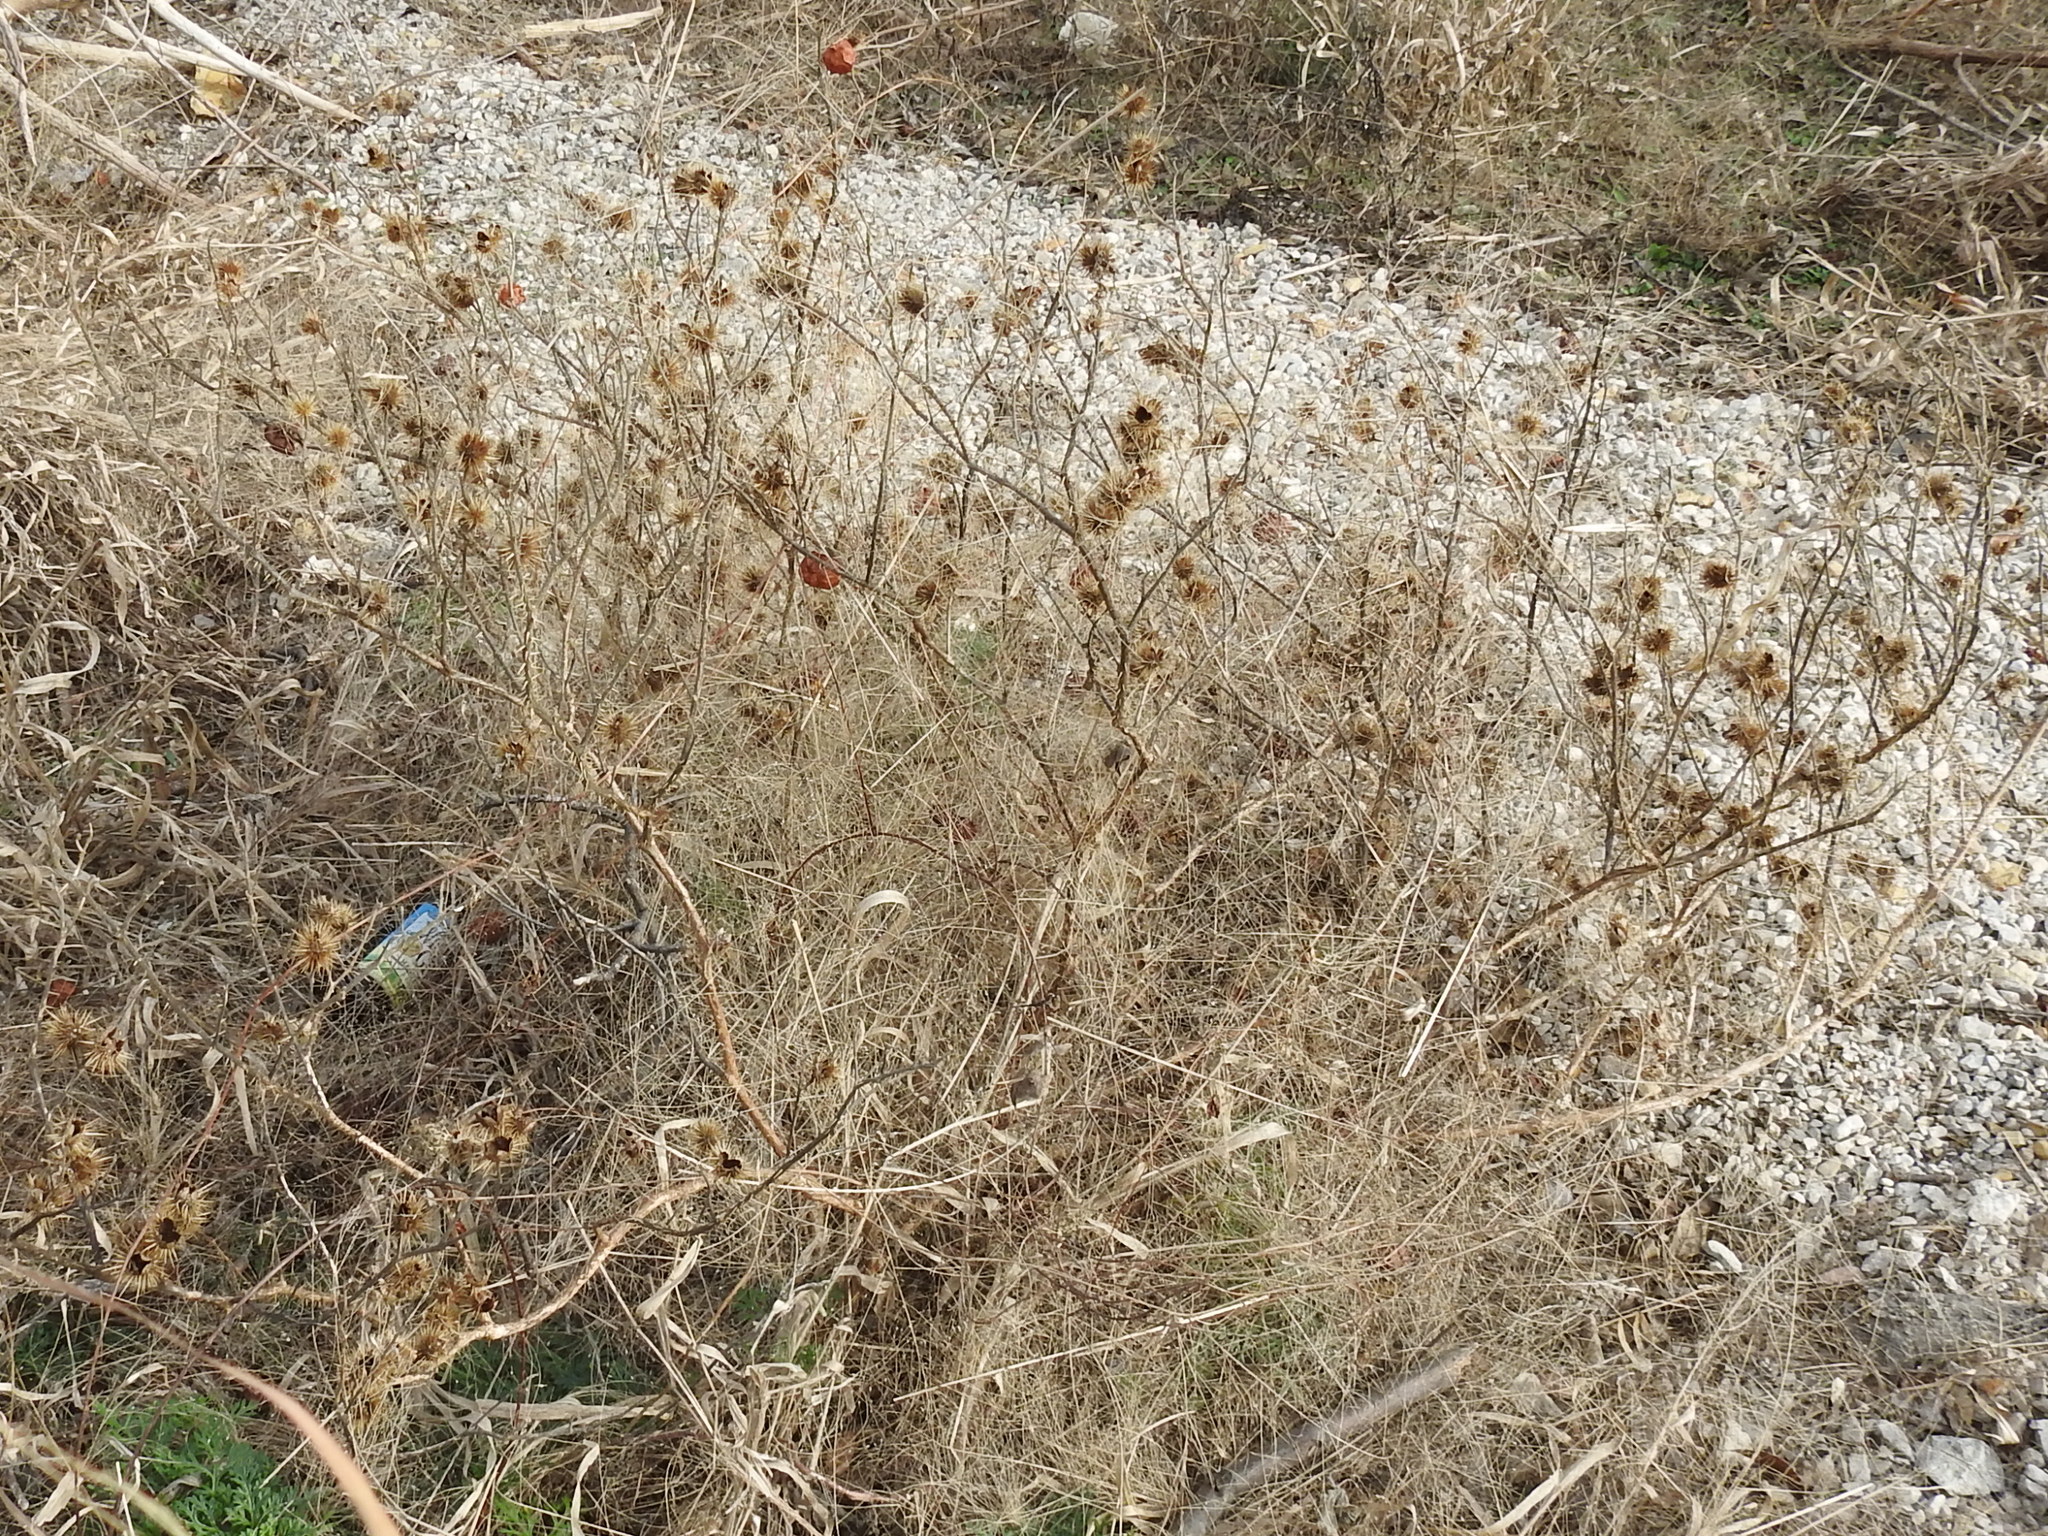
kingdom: Plantae
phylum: Tracheophyta
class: Magnoliopsida
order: Solanales
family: Solanaceae
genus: Solanum
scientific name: Solanum angustifolium
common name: Buffalobur nightshade
